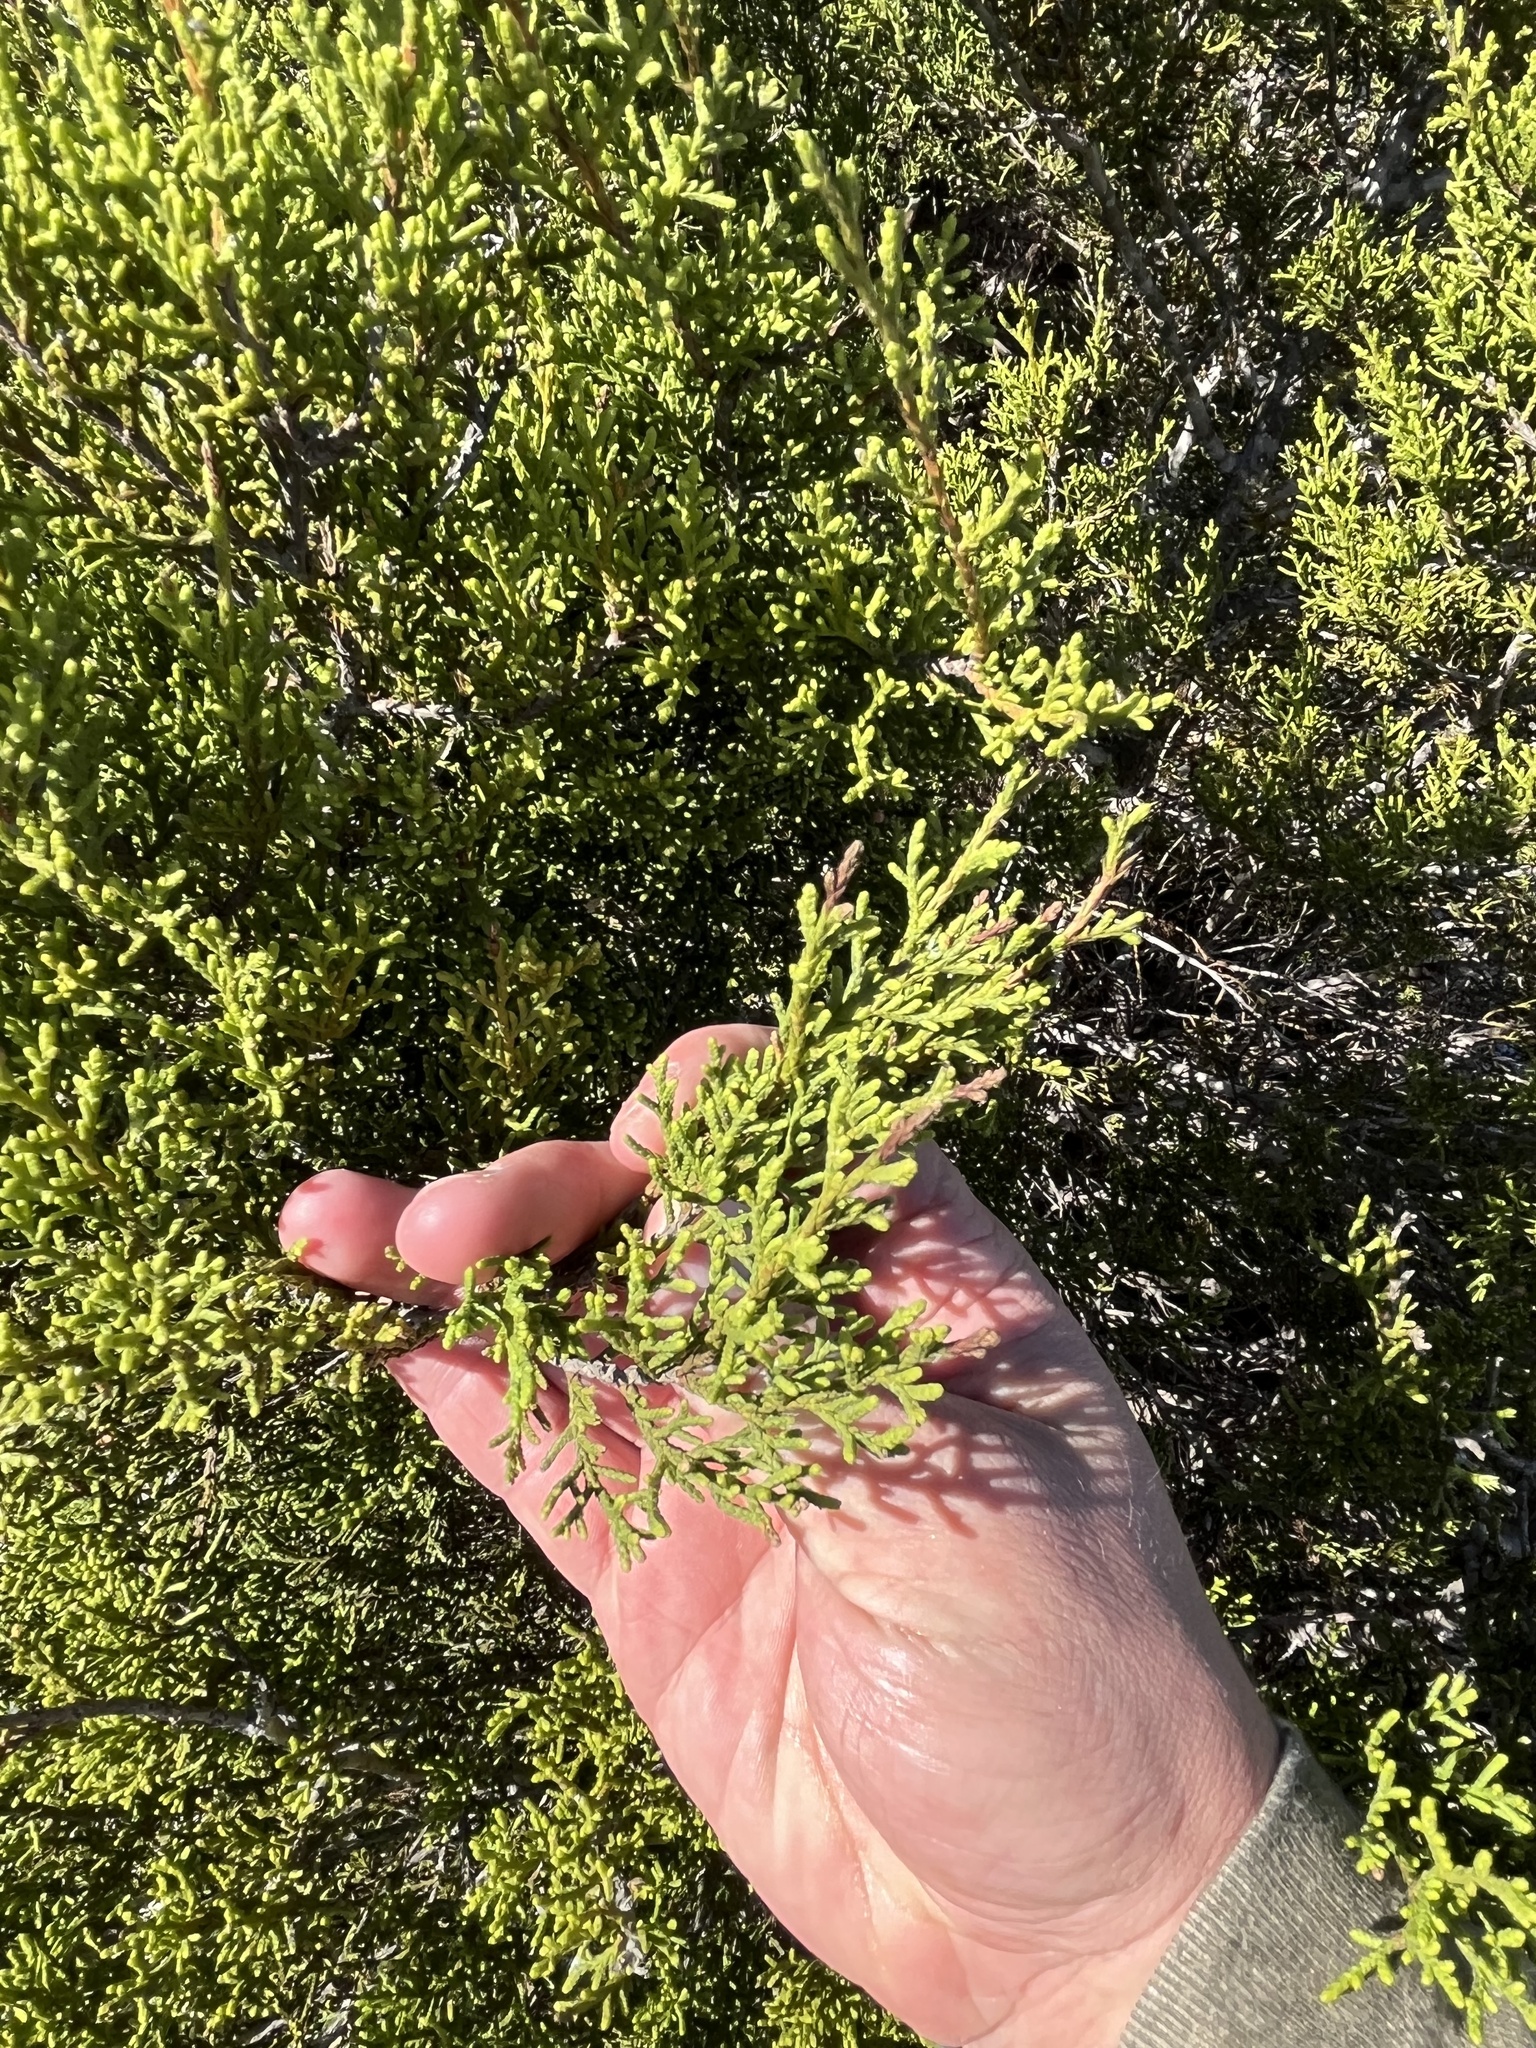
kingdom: Plantae
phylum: Tracheophyta
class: Pinopsida
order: Pinales
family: Cupressaceae
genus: Juniperus
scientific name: Juniperus ashei
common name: Mexican juniper
